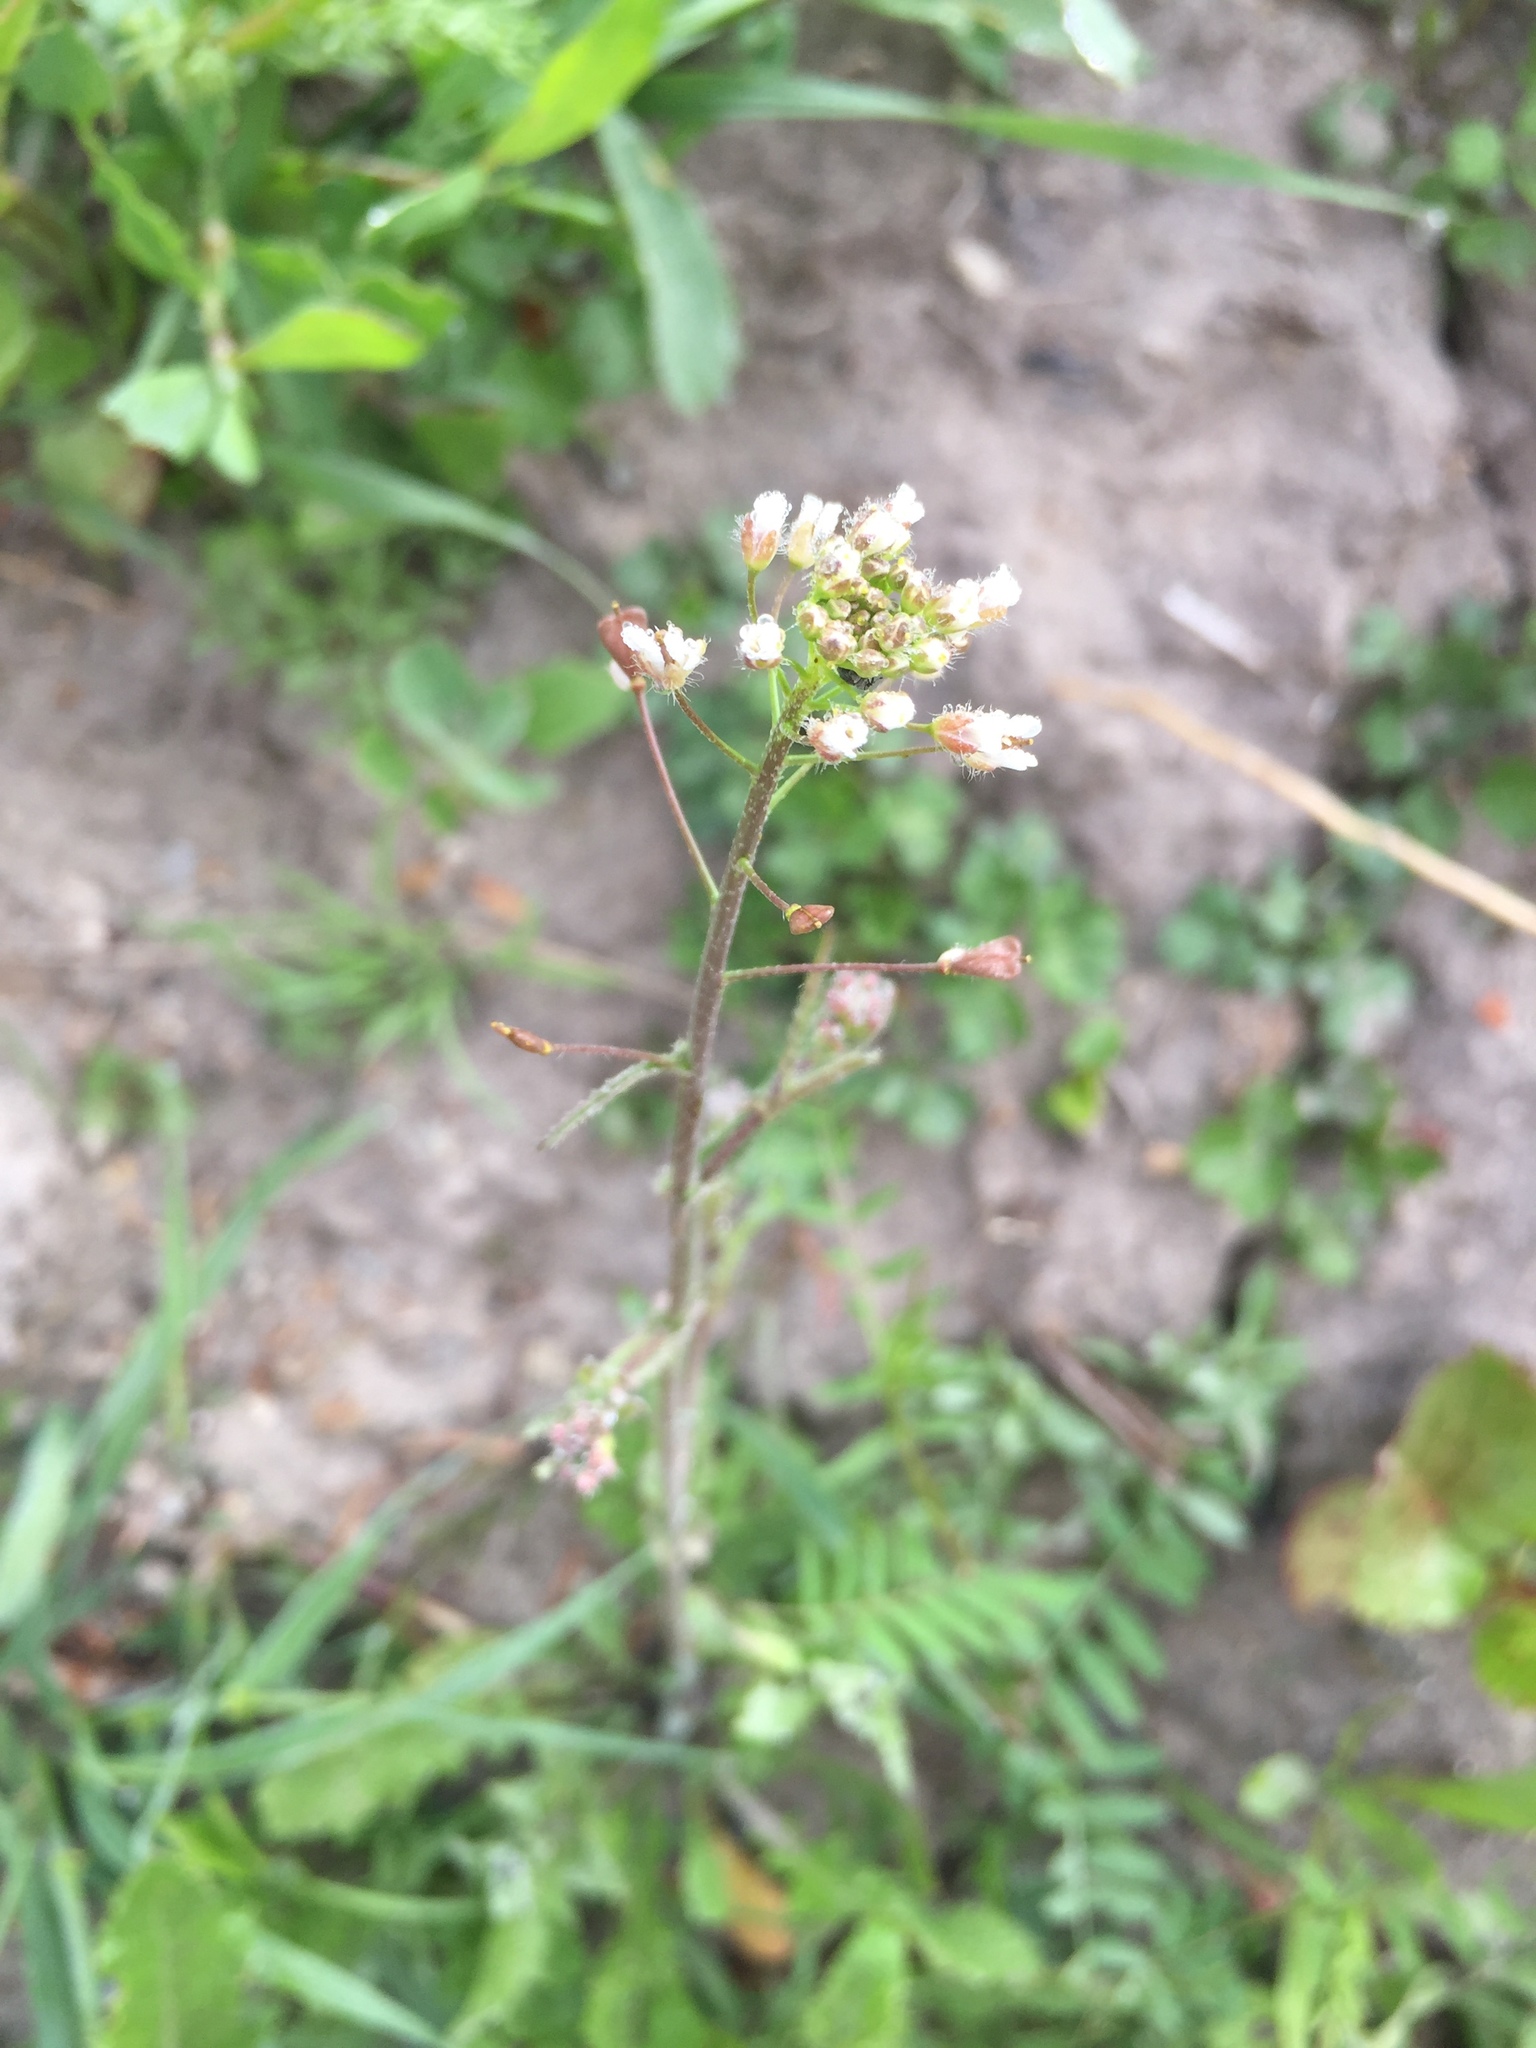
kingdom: Plantae
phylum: Tracheophyta
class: Magnoliopsida
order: Brassicales
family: Brassicaceae
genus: Capsella
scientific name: Capsella bursa-pastoris
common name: Shepherd's purse
